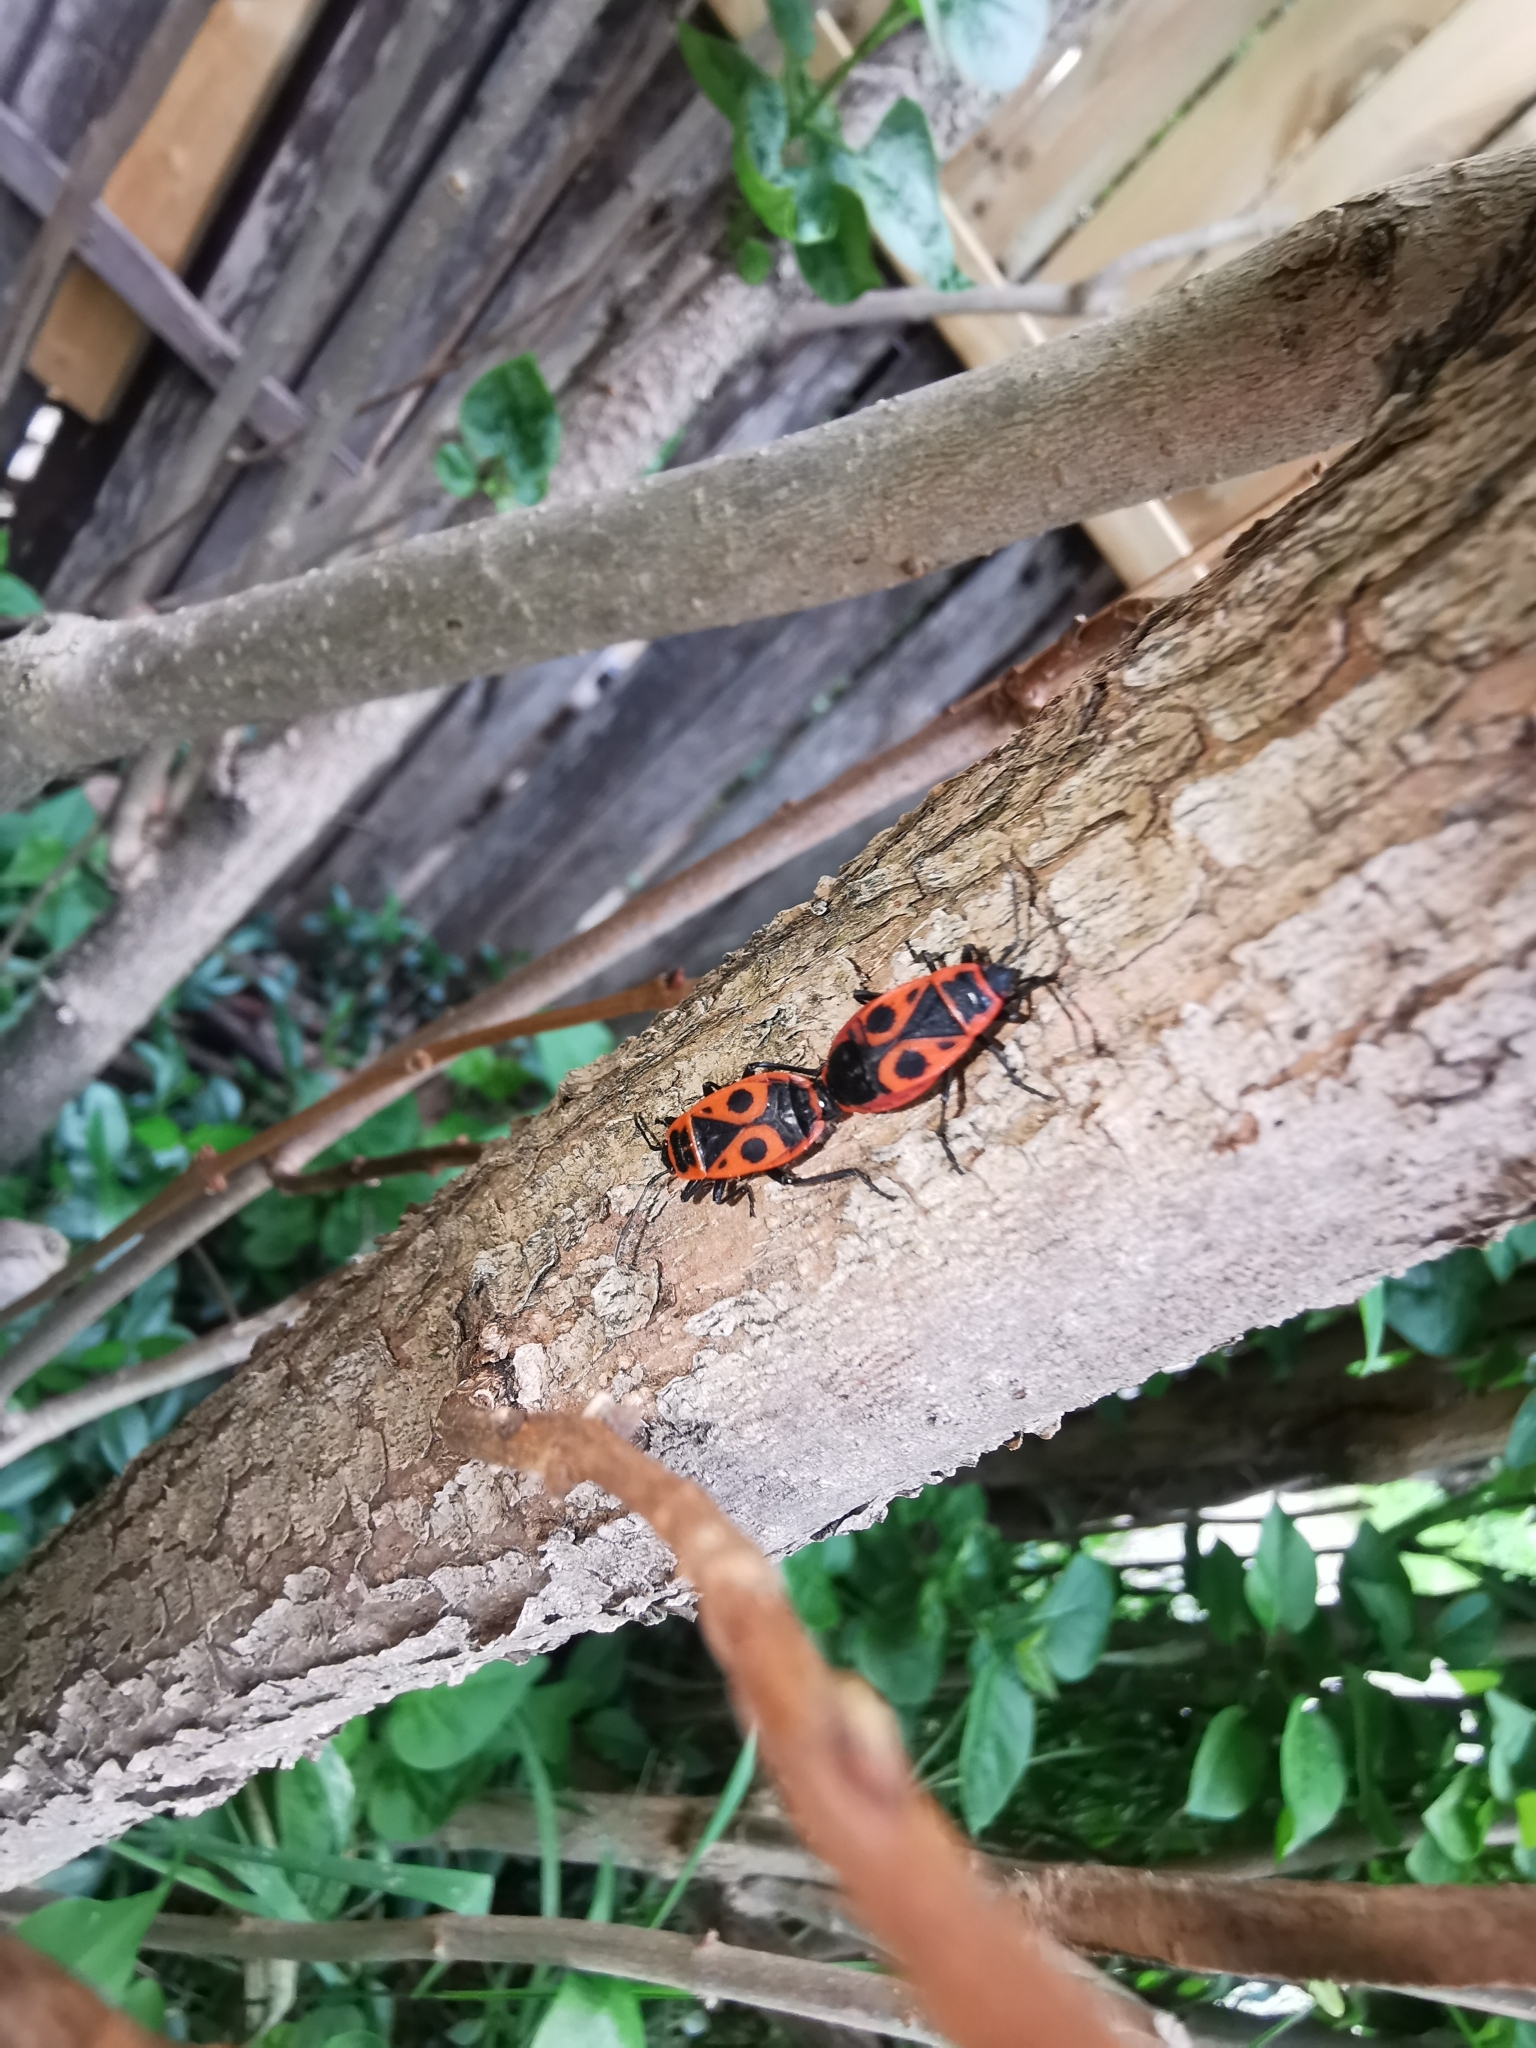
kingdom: Animalia
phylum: Arthropoda
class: Insecta
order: Hemiptera
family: Pyrrhocoridae
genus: Pyrrhocoris
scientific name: Pyrrhocoris apterus
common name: Firebug
